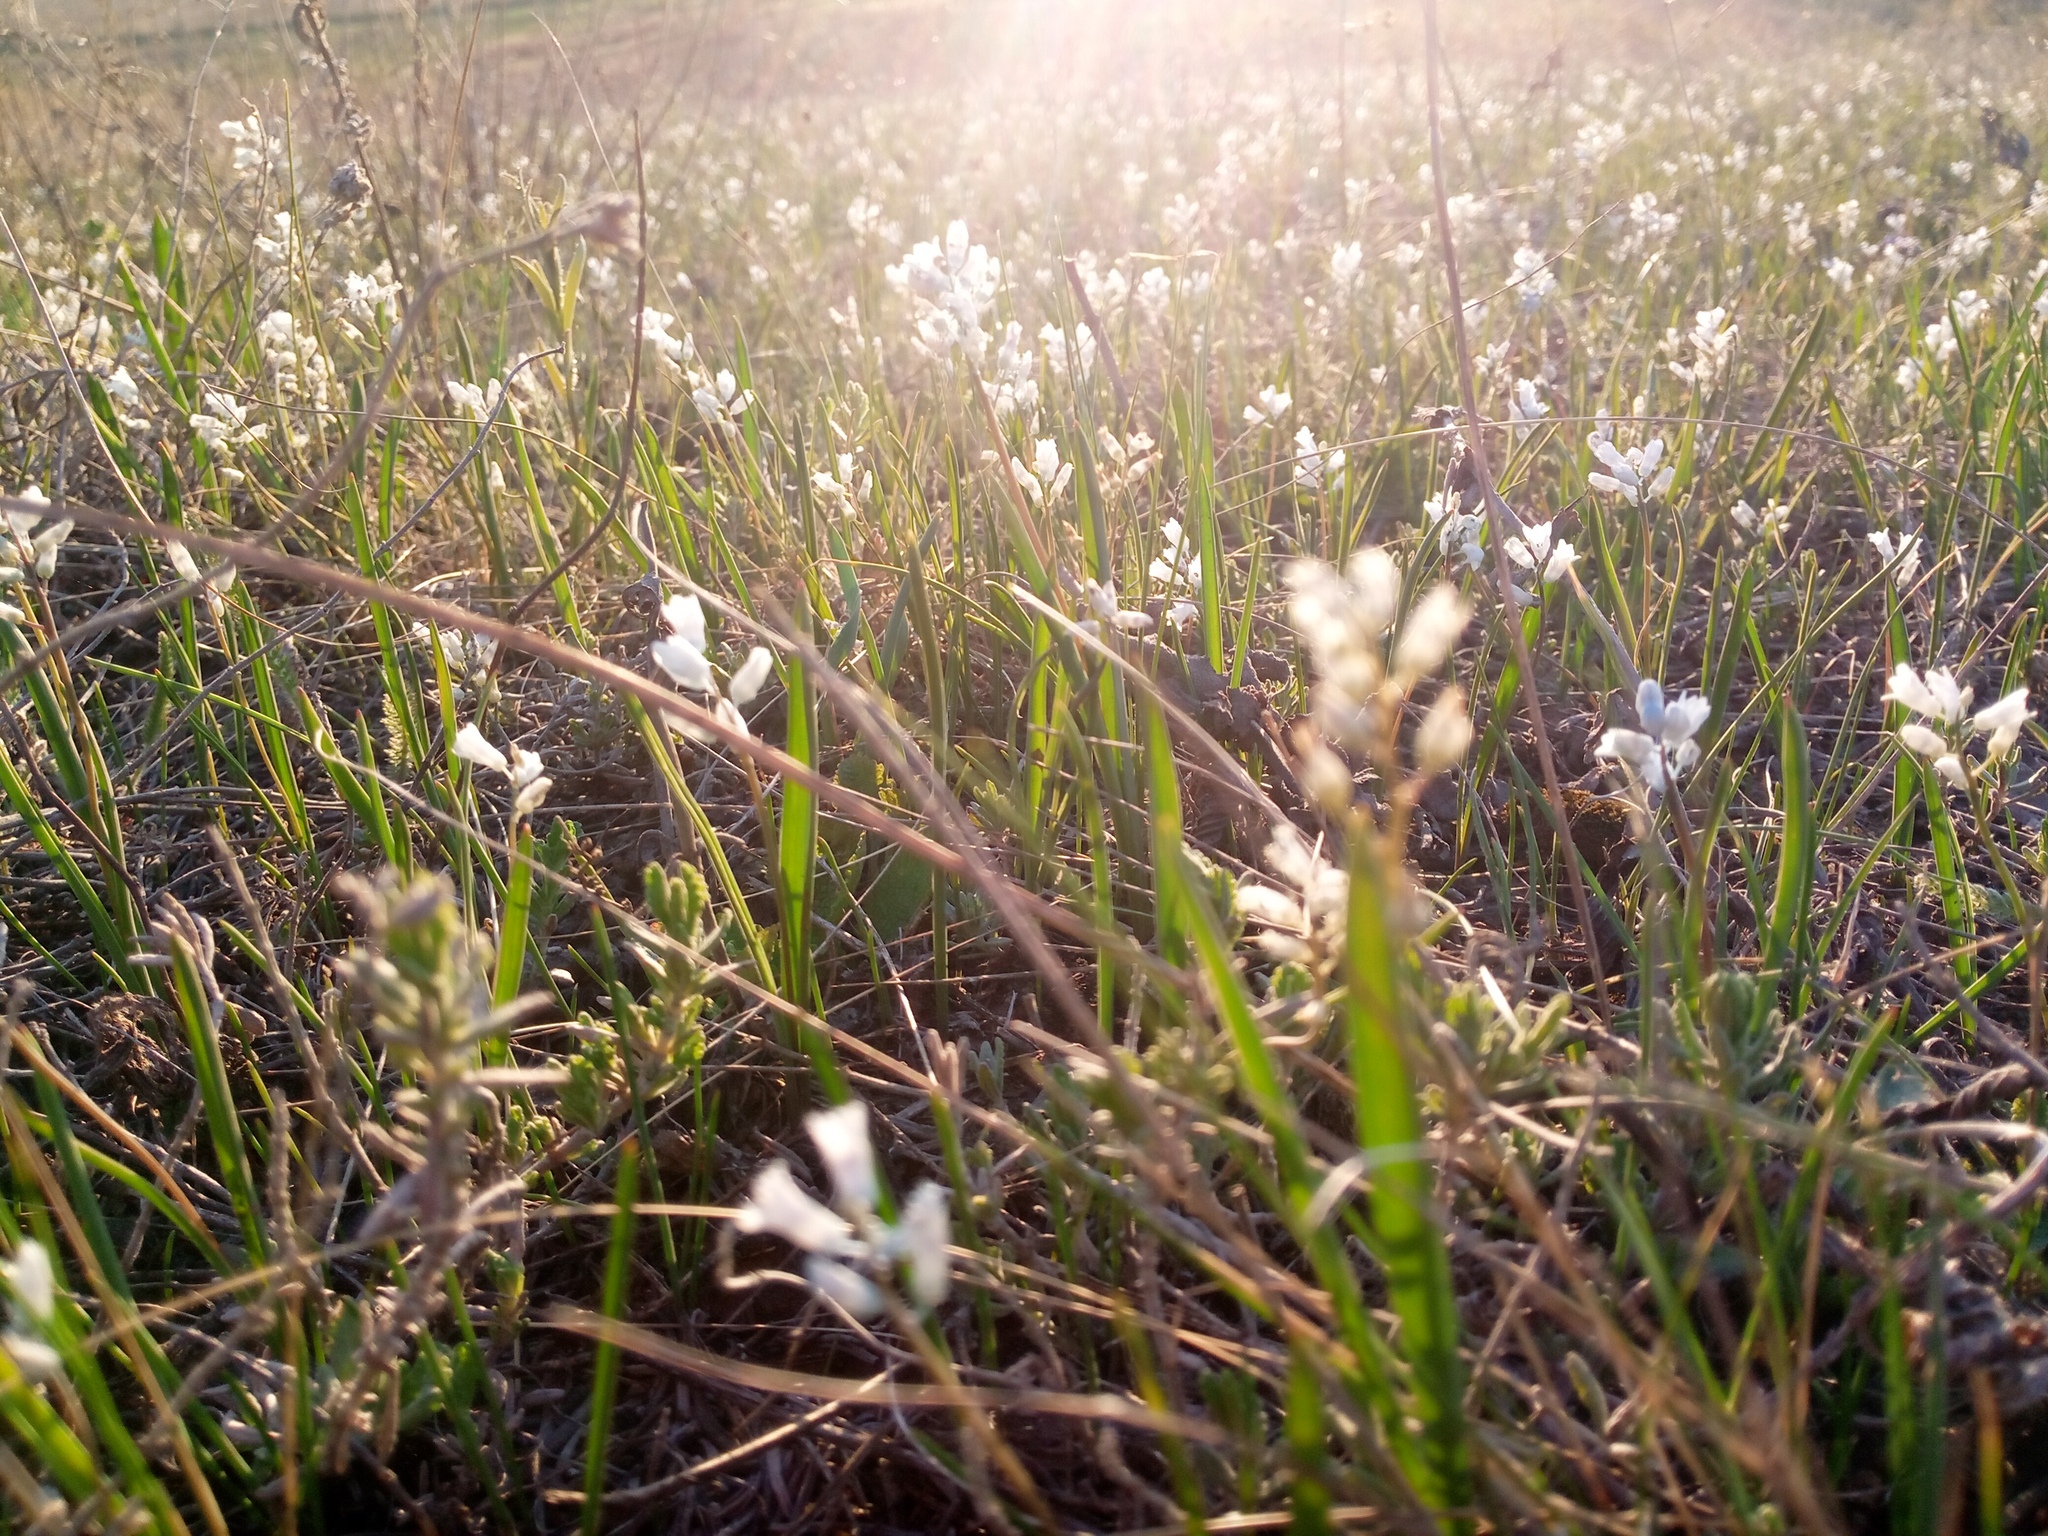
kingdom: Plantae
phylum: Tracheophyta
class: Liliopsida
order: Asparagales
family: Asparagaceae
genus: Hyacinthella
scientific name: Hyacinthella leucophaea
